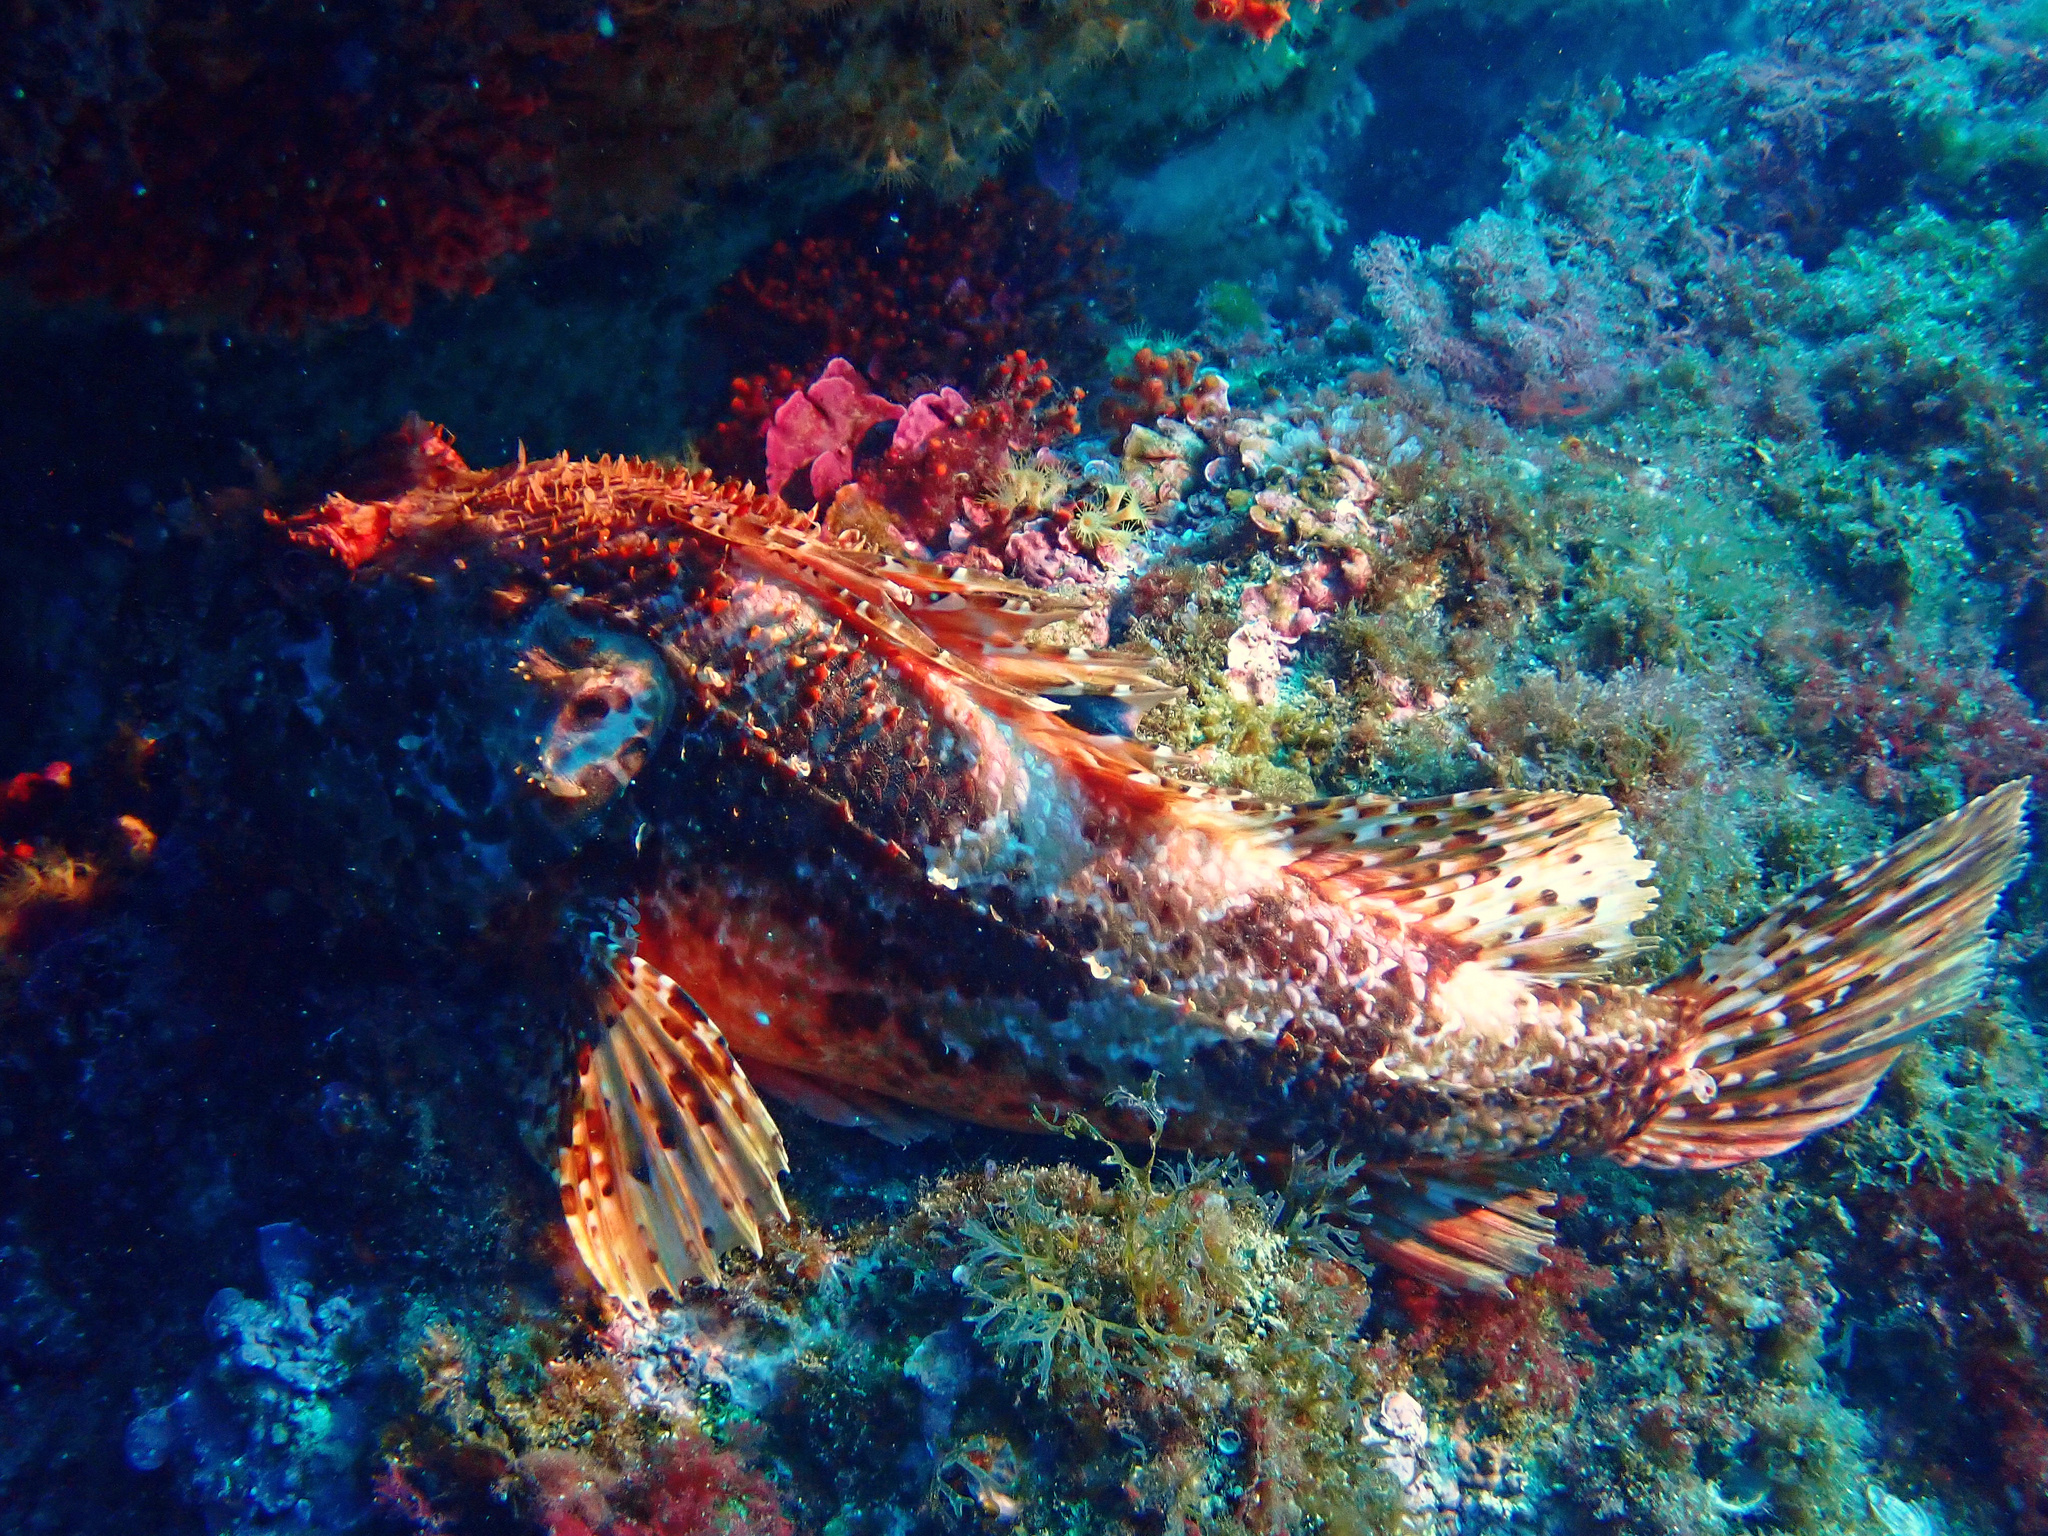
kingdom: Animalia
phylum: Chordata
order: Scorpaeniformes
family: Scorpaenidae
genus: Scorpaena
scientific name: Scorpaena scrofa
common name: Red scorpionfish
